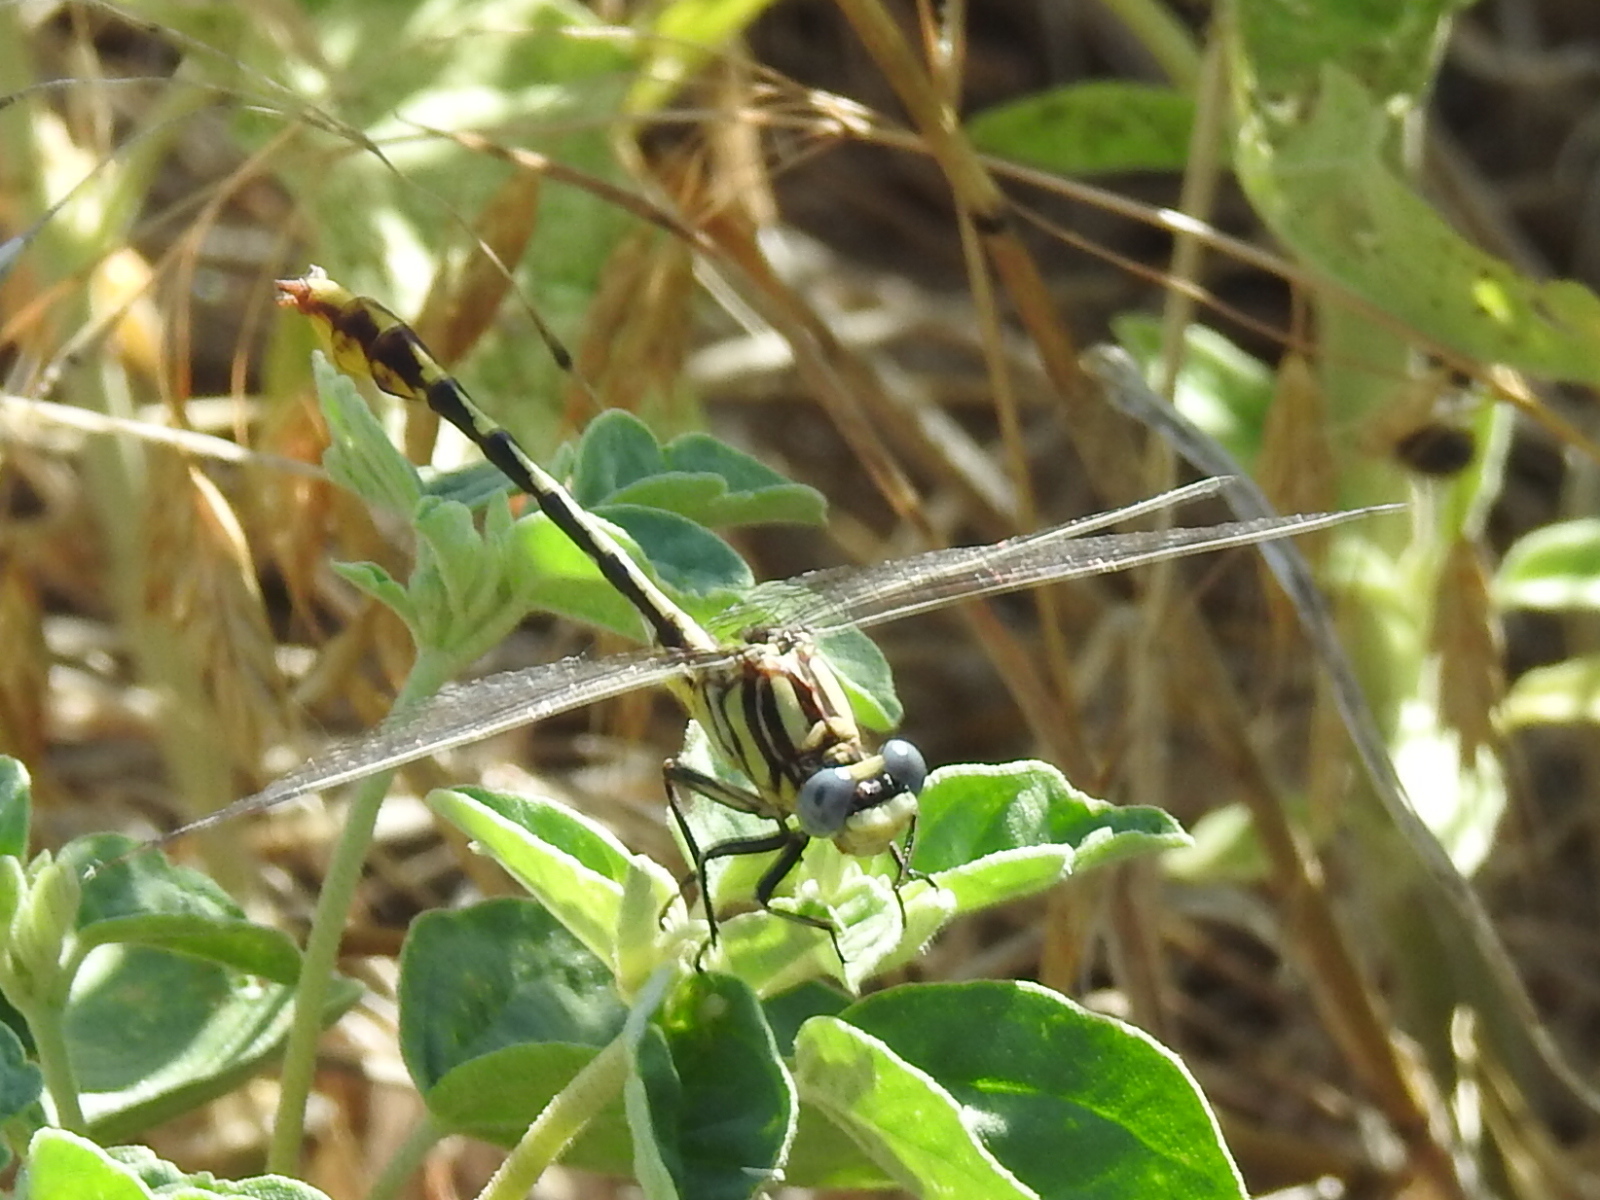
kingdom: Animalia
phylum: Arthropoda
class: Insecta
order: Odonata
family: Gomphidae
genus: Phanogomphus
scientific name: Phanogomphus militaris
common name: Sulphur-tipped clubtail
